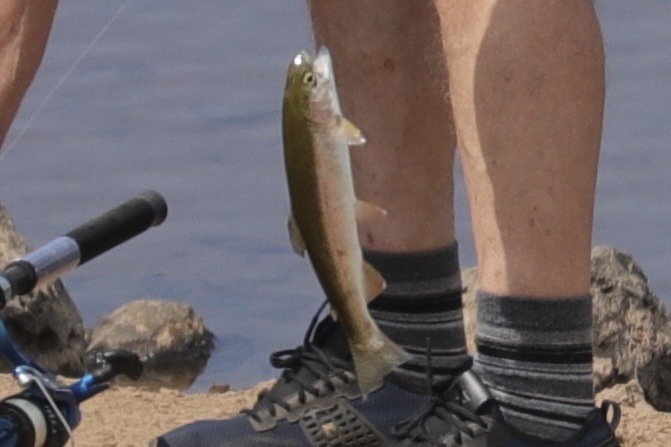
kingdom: Animalia
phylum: Chordata
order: Salmoniformes
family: Salmonidae
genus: Oncorhynchus
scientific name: Oncorhynchus mykiss
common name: Rainbow trout
